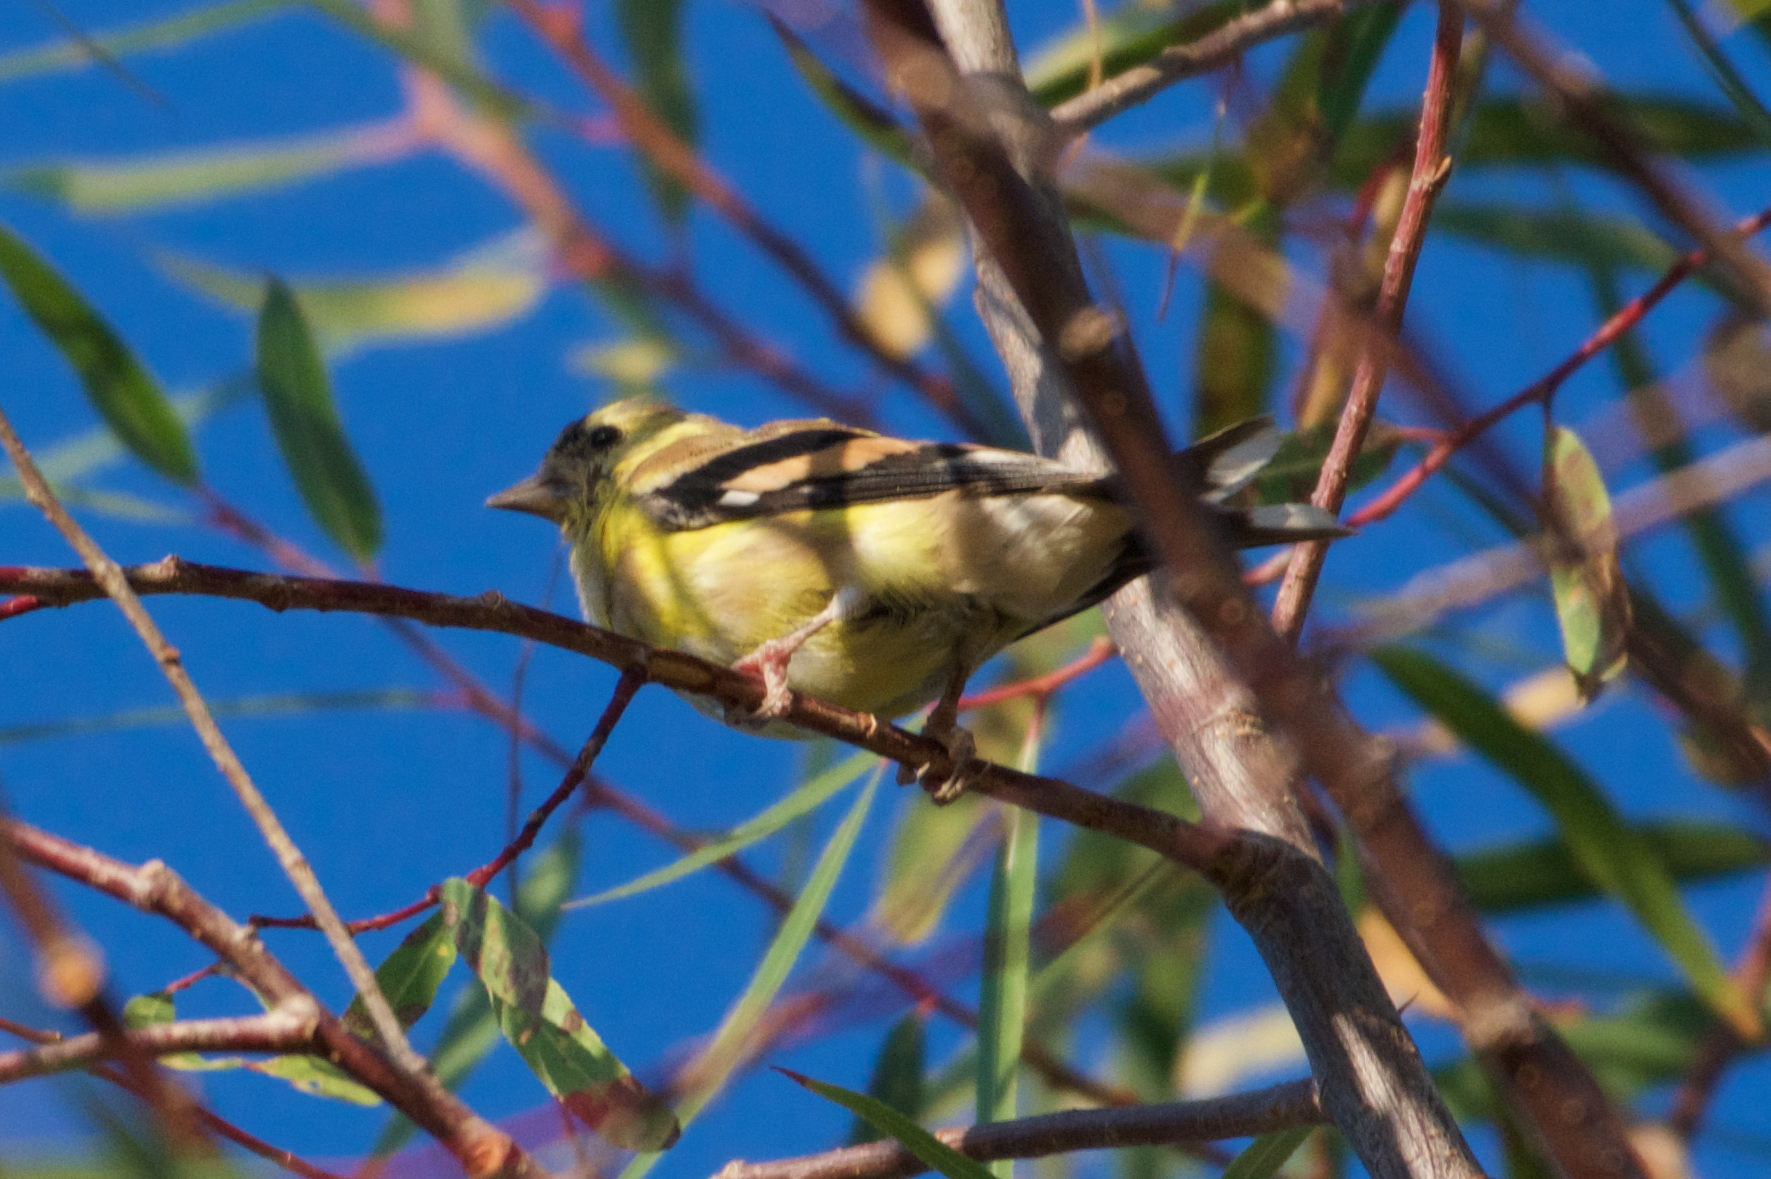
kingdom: Animalia
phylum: Chordata
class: Aves
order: Passeriformes
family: Fringillidae
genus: Spinus
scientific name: Spinus tristis
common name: American goldfinch
